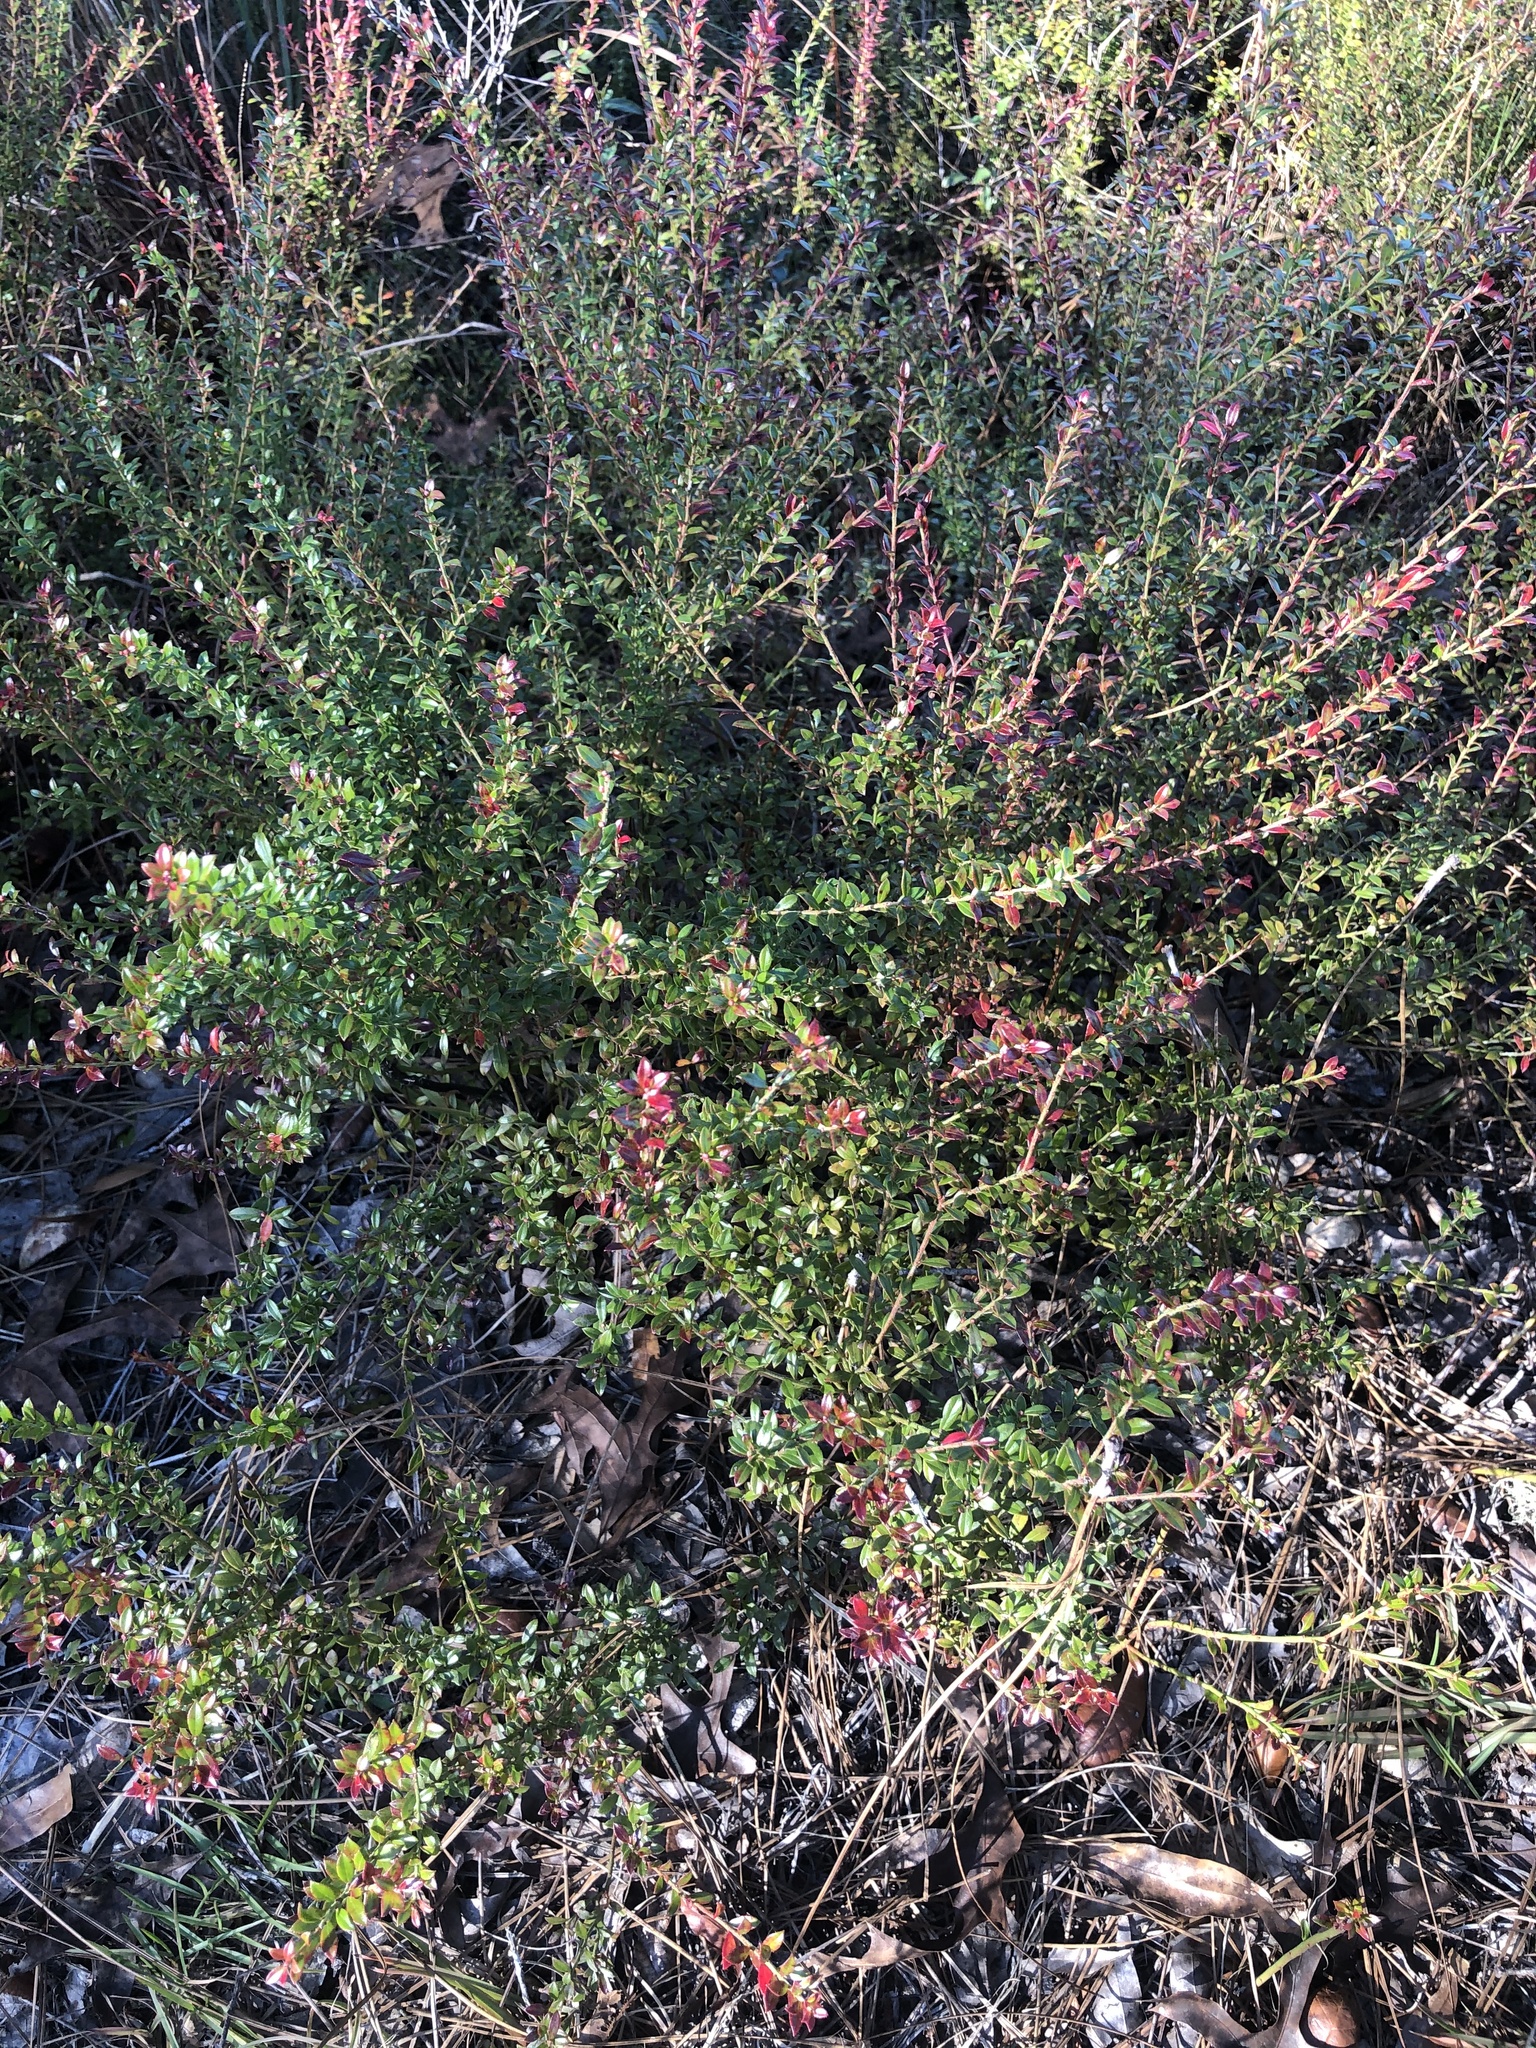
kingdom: Plantae
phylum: Tracheophyta
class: Magnoliopsida
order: Ericales
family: Ericaceae
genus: Vaccinium
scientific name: Vaccinium myrsinites
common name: Evergreen blueberry
